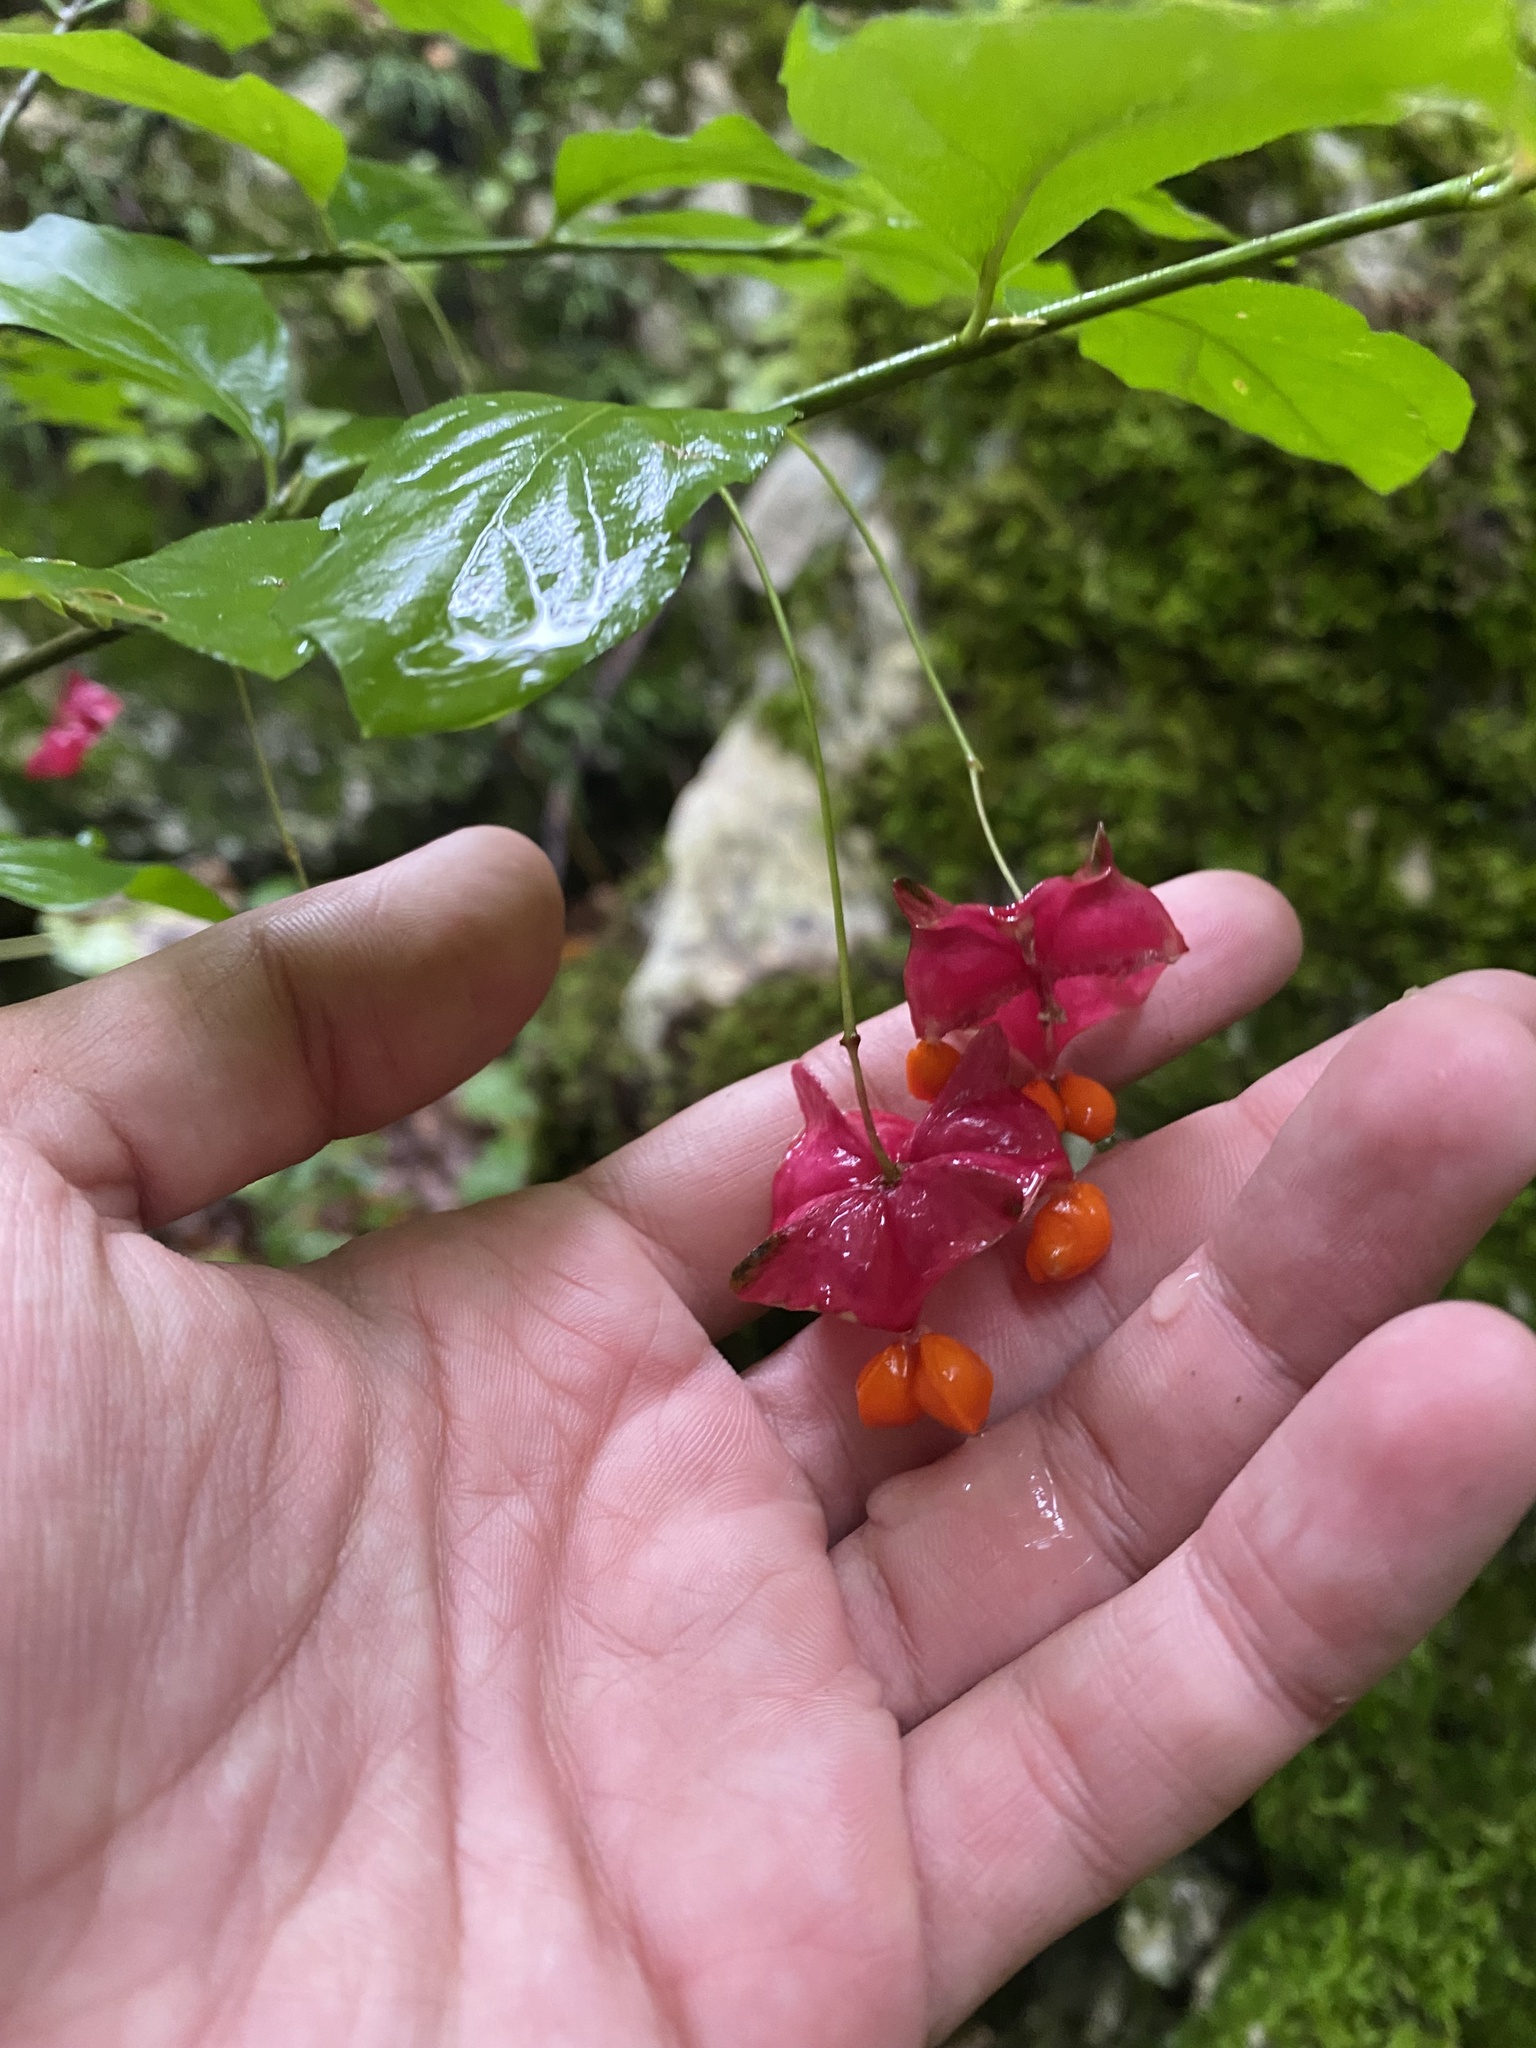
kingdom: Plantae
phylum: Tracheophyta
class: Magnoliopsida
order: Celastrales
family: Celastraceae
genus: Euonymus
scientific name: Euonymus latifolius
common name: Large-leaved spindle
